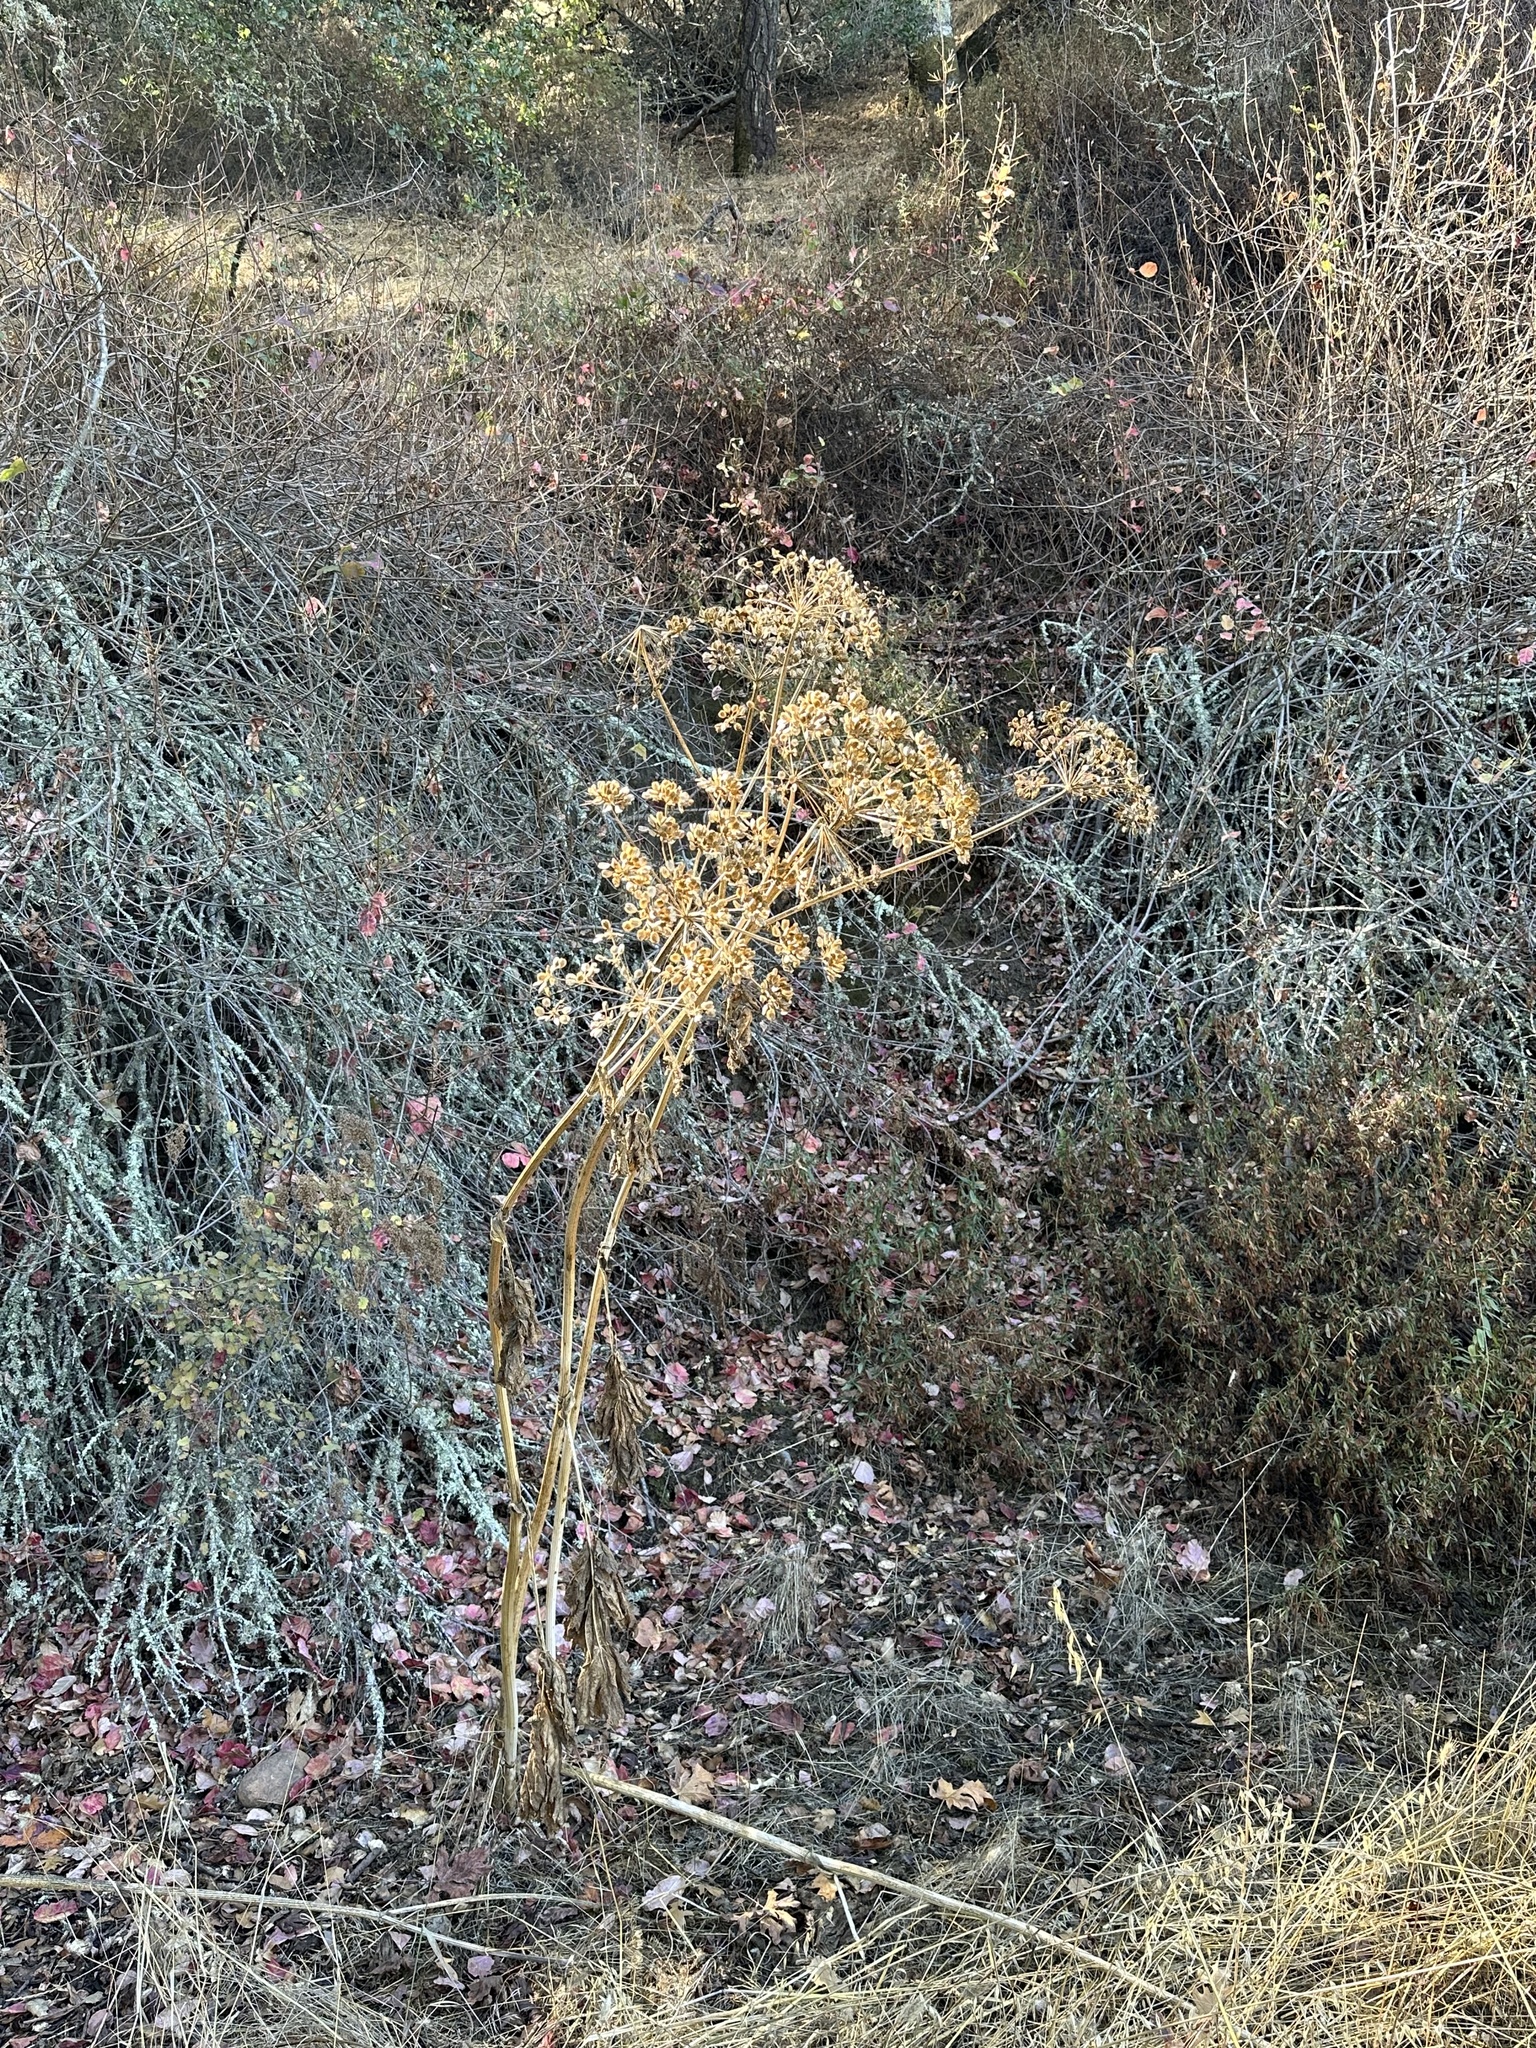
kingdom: Plantae
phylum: Tracheophyta
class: Magnoliopsida
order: Apiales
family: Apiaceae
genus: Heracleum
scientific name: Heracleum maximum
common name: American cow parsnip
